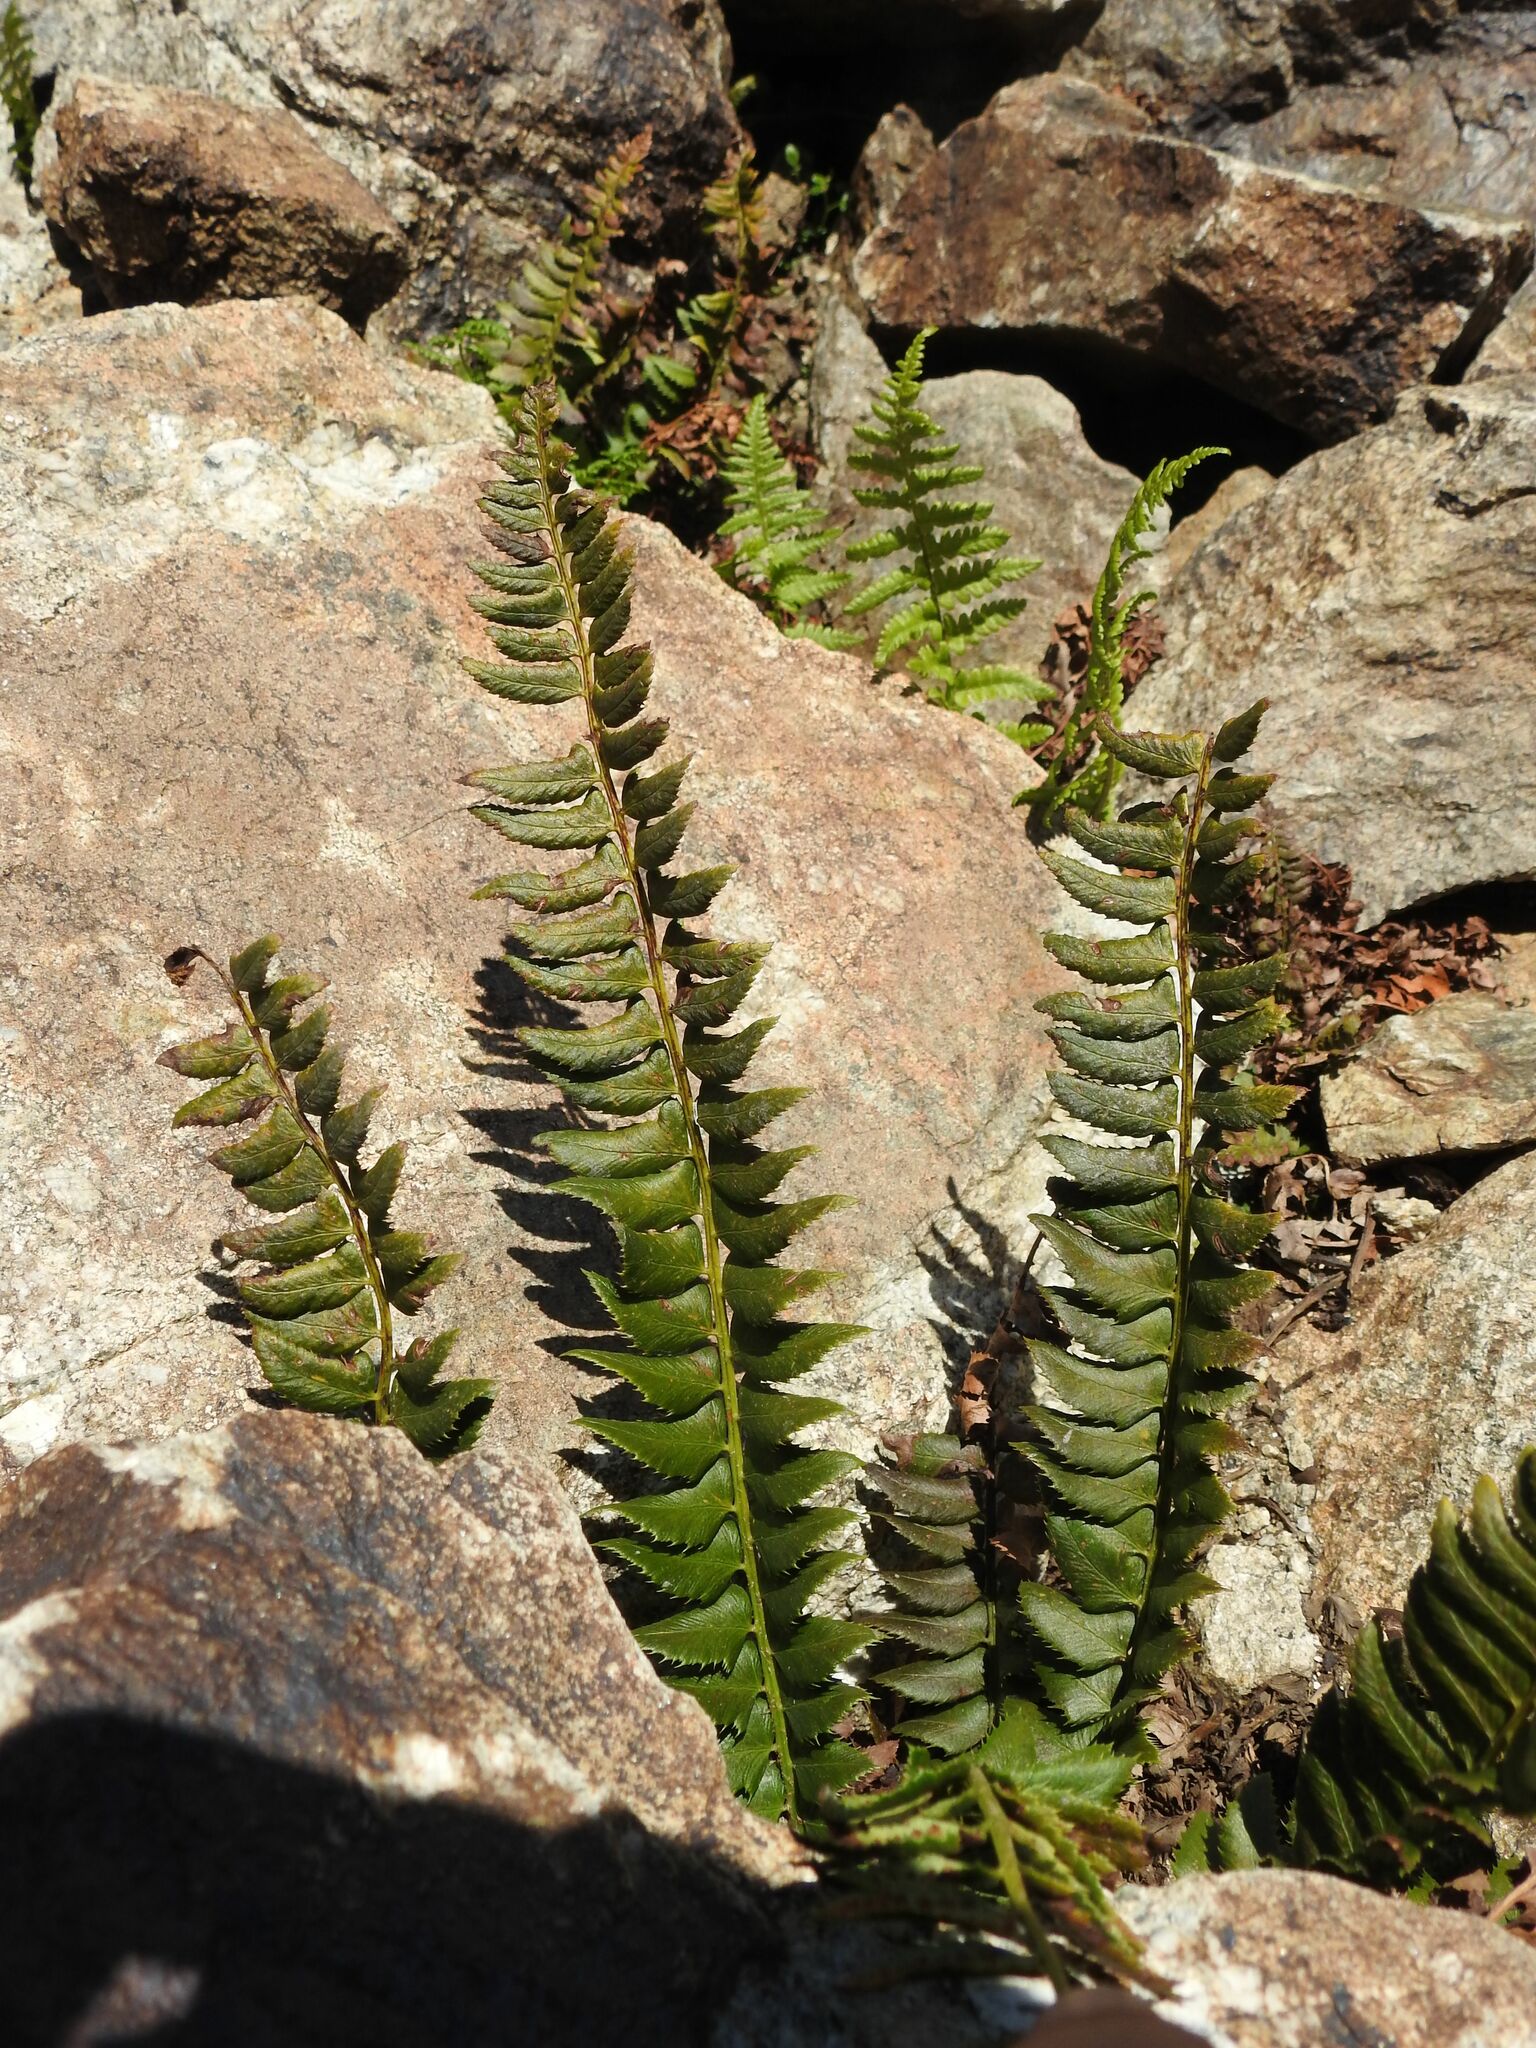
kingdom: Plantae
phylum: Tracheophyta
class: Polypodiopsida
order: Polypodiales
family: Dryopteridaceae
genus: Polystichum
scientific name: Polystichum lonchitis
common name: Holly fern
